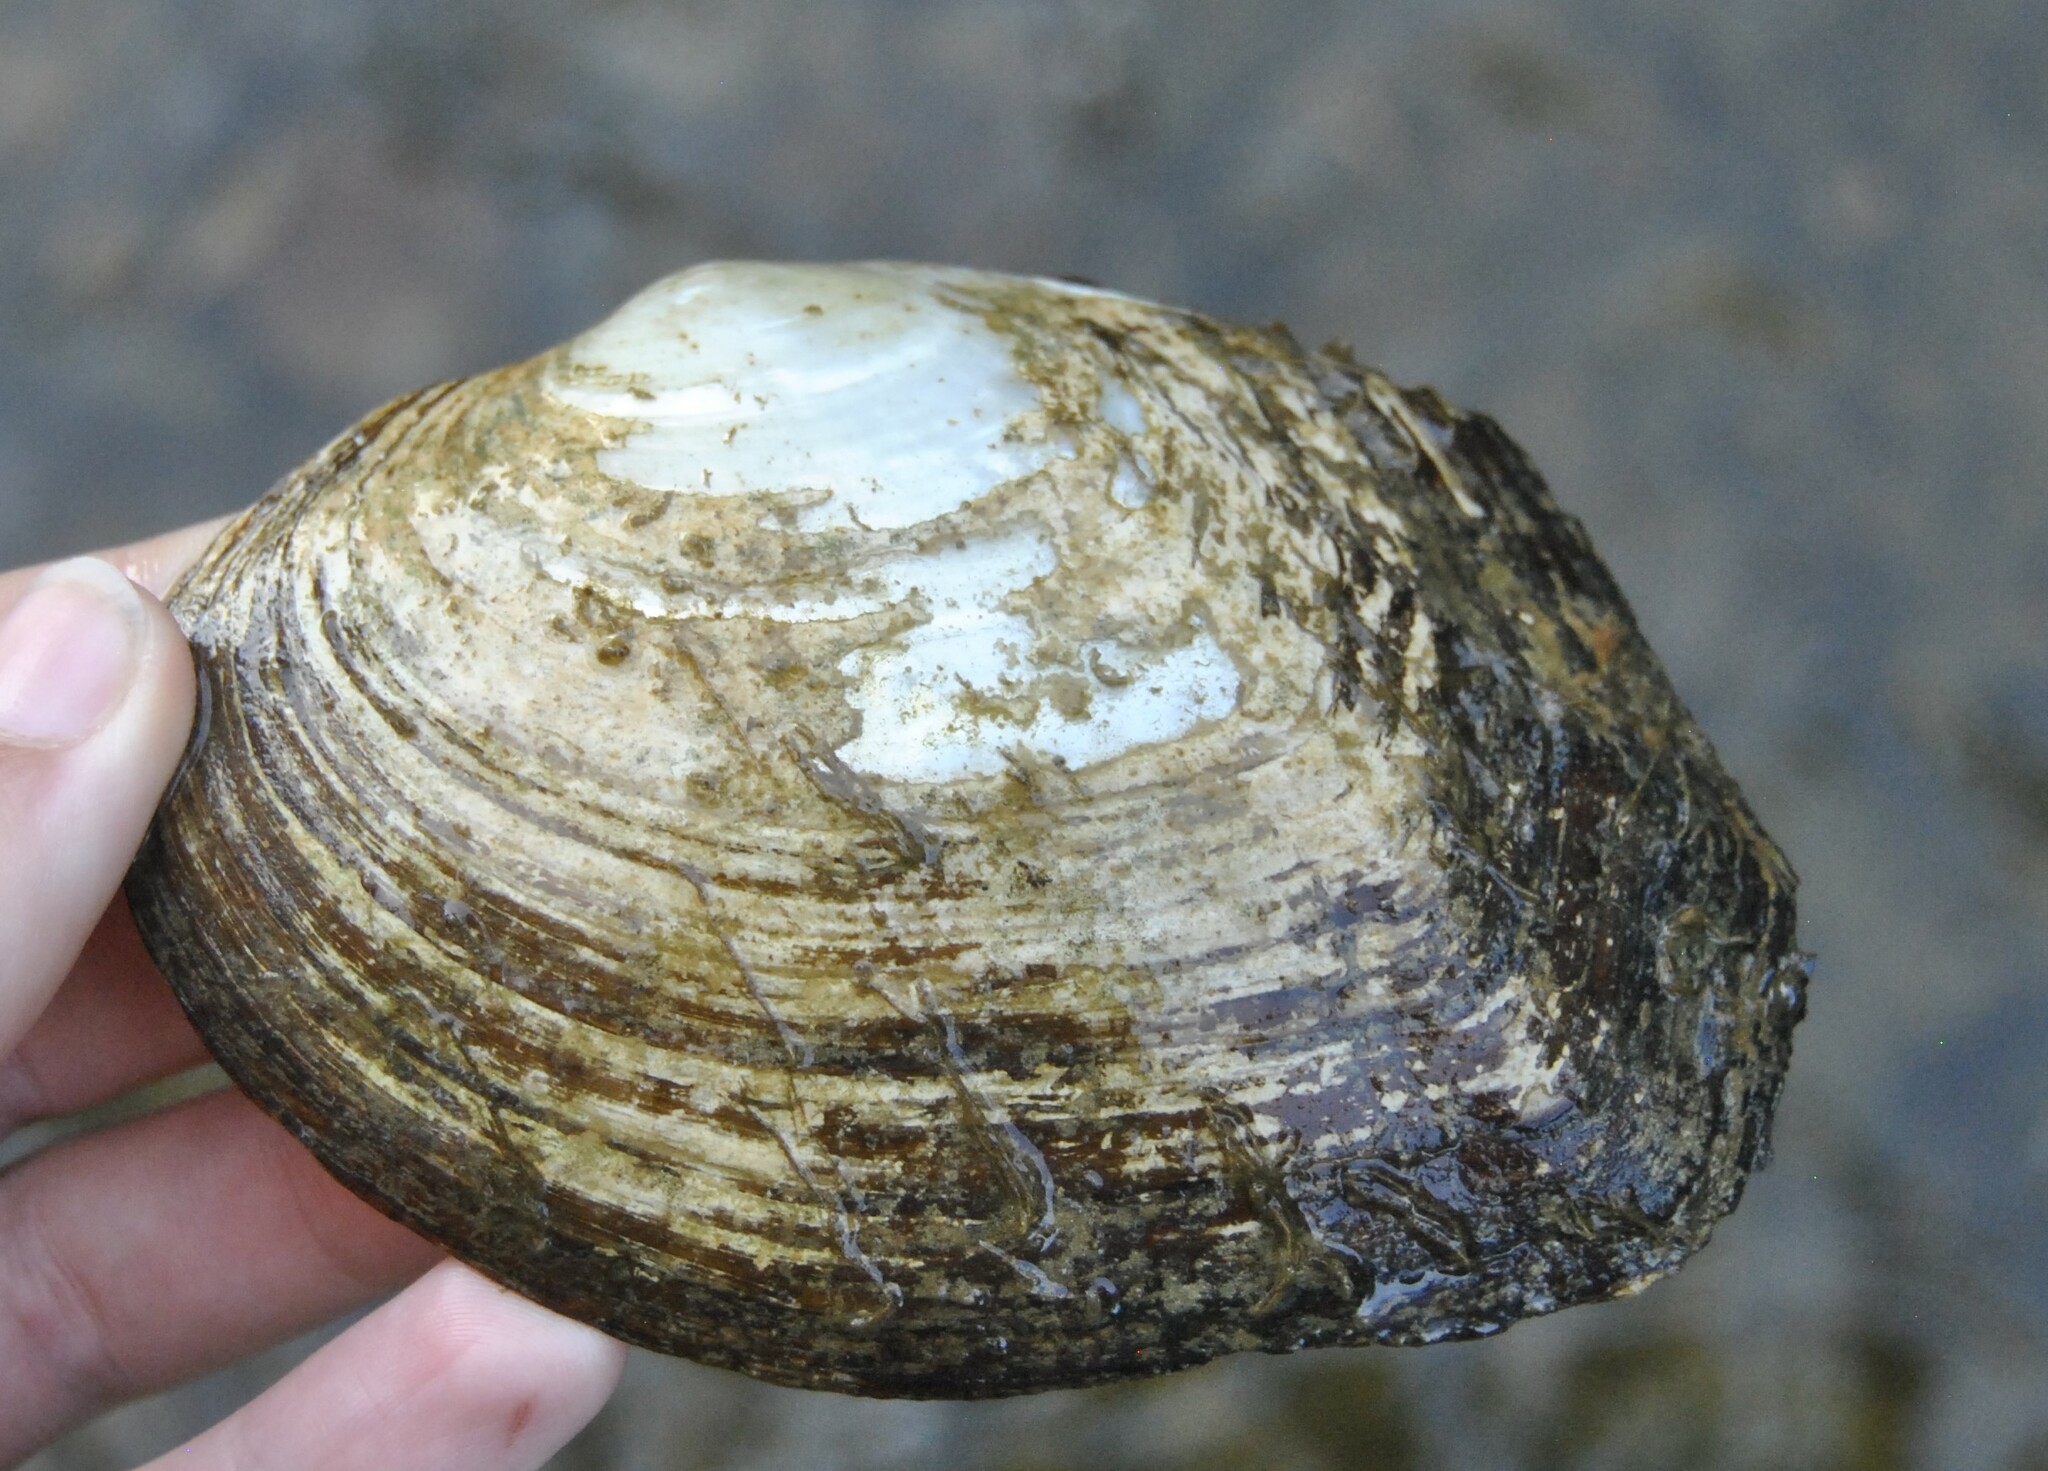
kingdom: Animalia
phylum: Mollusca
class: Bivalvia
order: Unionida
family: Unionidae
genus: Lasmigona
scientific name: Lasmigona complanata
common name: White heelsplitter
